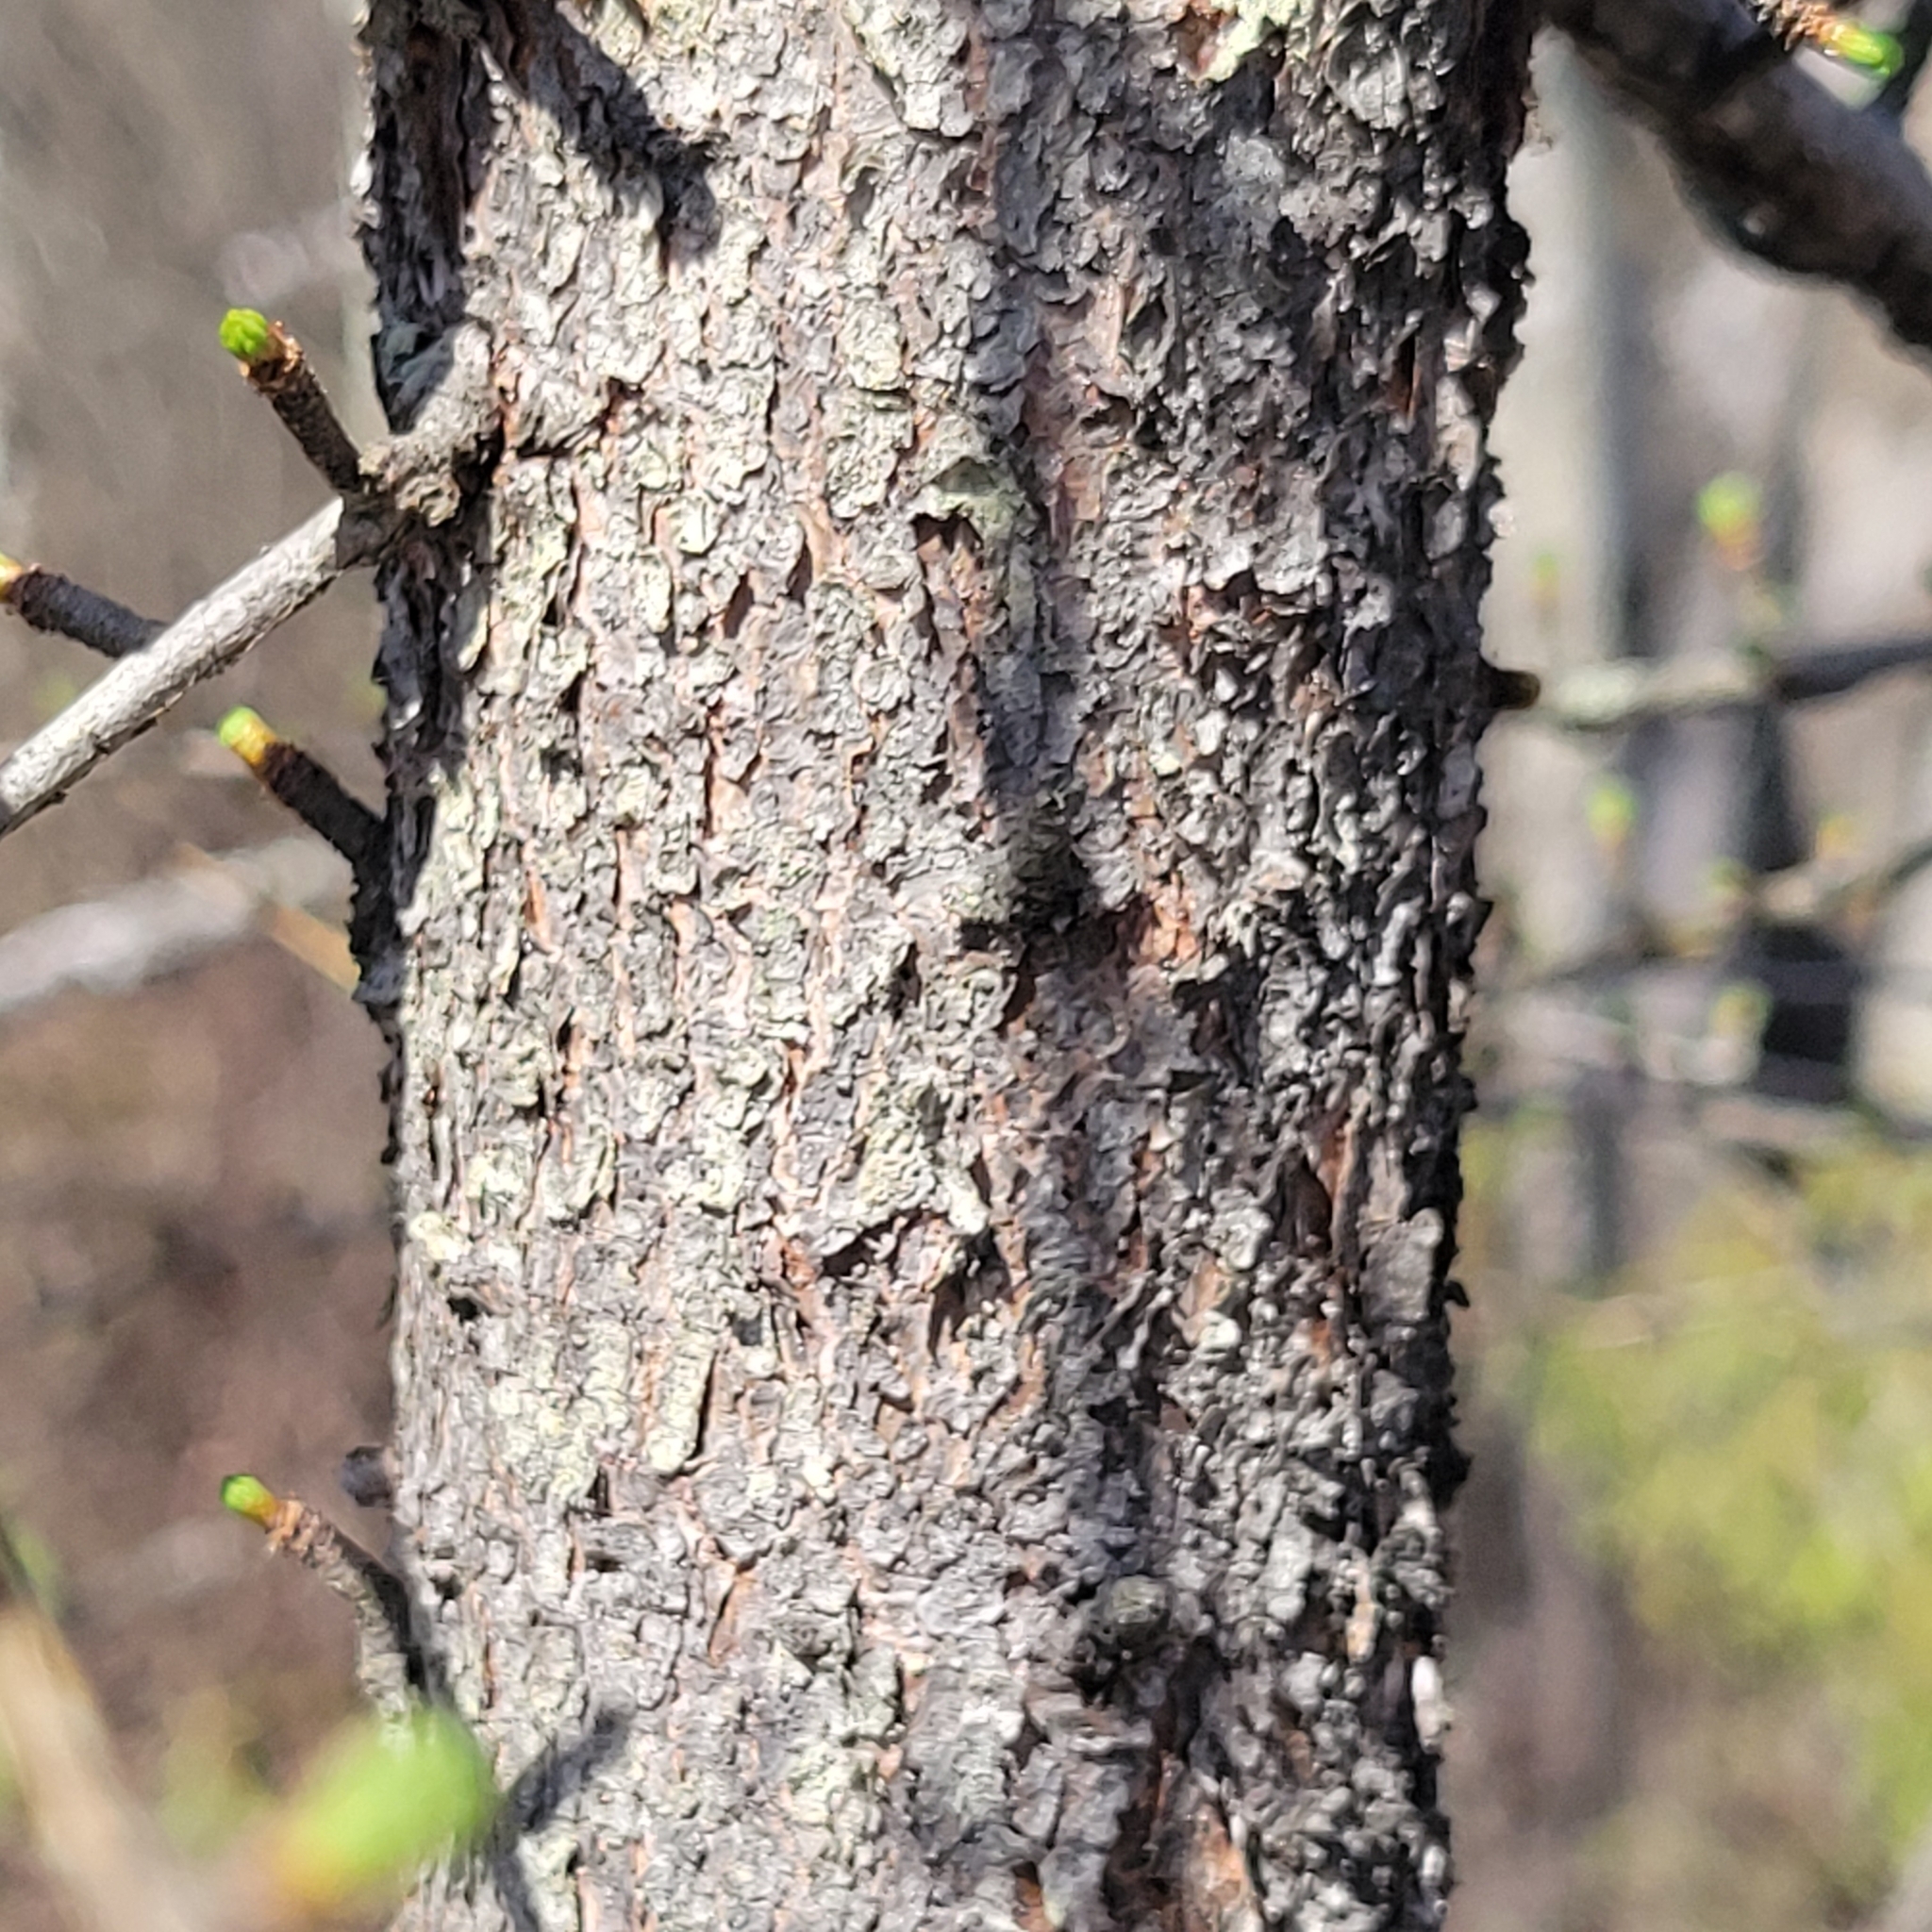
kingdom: Plantae
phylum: Tracheophyta
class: Pinopsida
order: Pinales
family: Pinaceae
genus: Larix
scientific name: Larix laricina
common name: American larch
